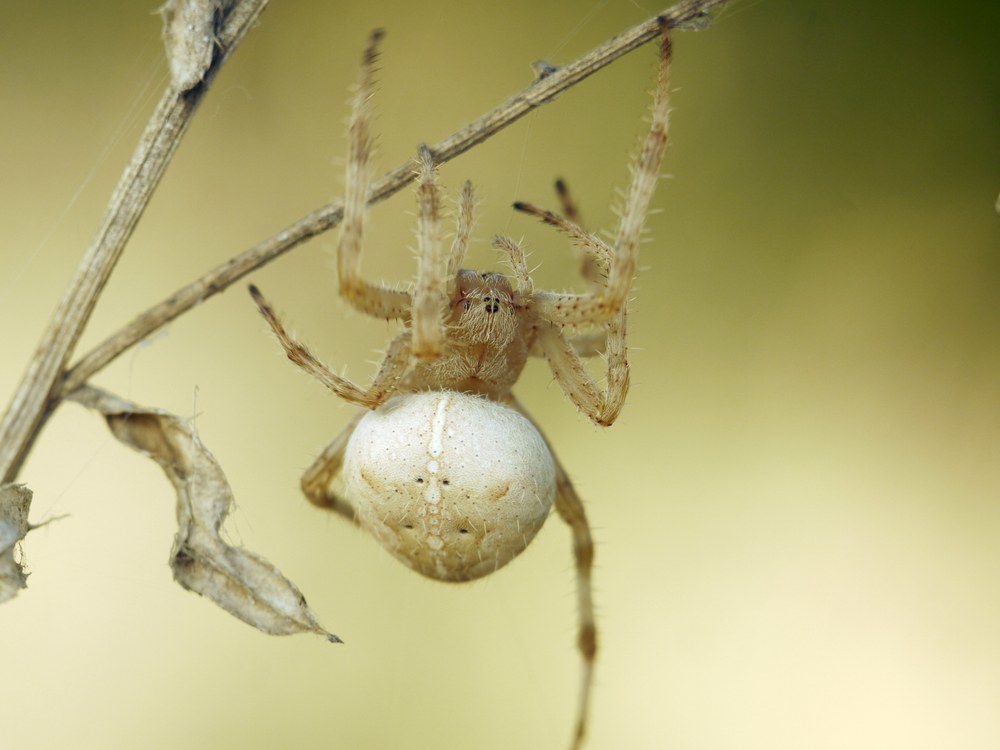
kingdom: Animalia
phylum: Arthropoda
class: Arachnida
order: Araneae
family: Araneidae
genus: Araneus
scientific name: Araneus diadematus
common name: Cross orbweaver
